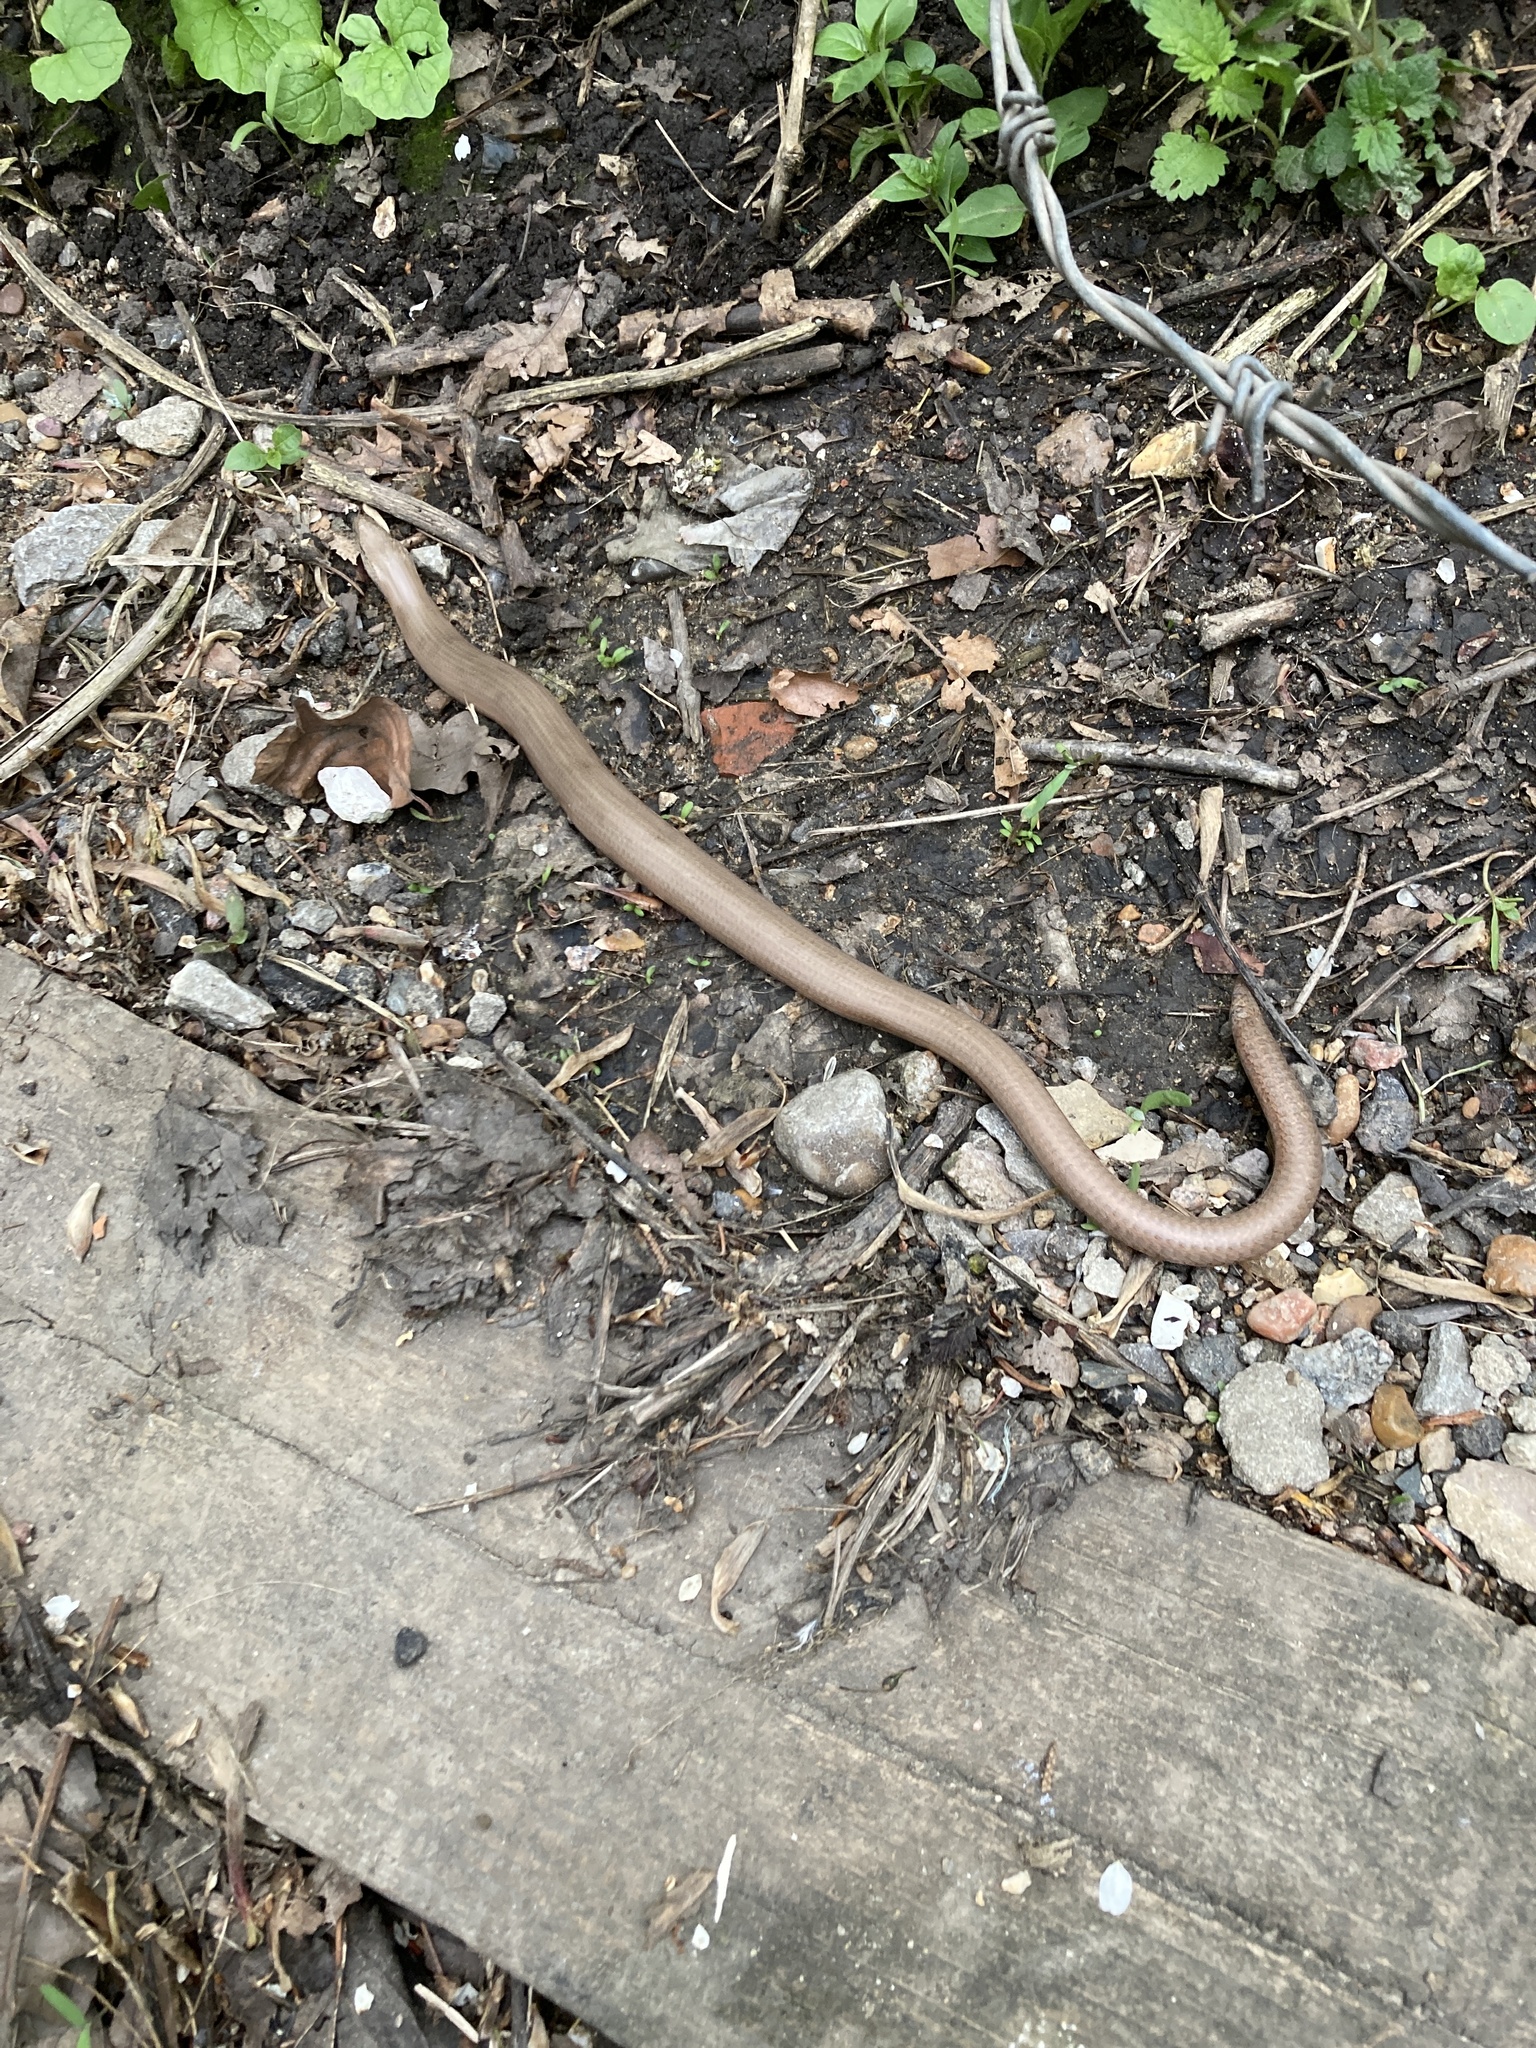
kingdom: Animalia
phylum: Chordata
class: Squamata
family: Anguidae
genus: Anguis
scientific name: Anguis fragilis
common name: Slow worm
